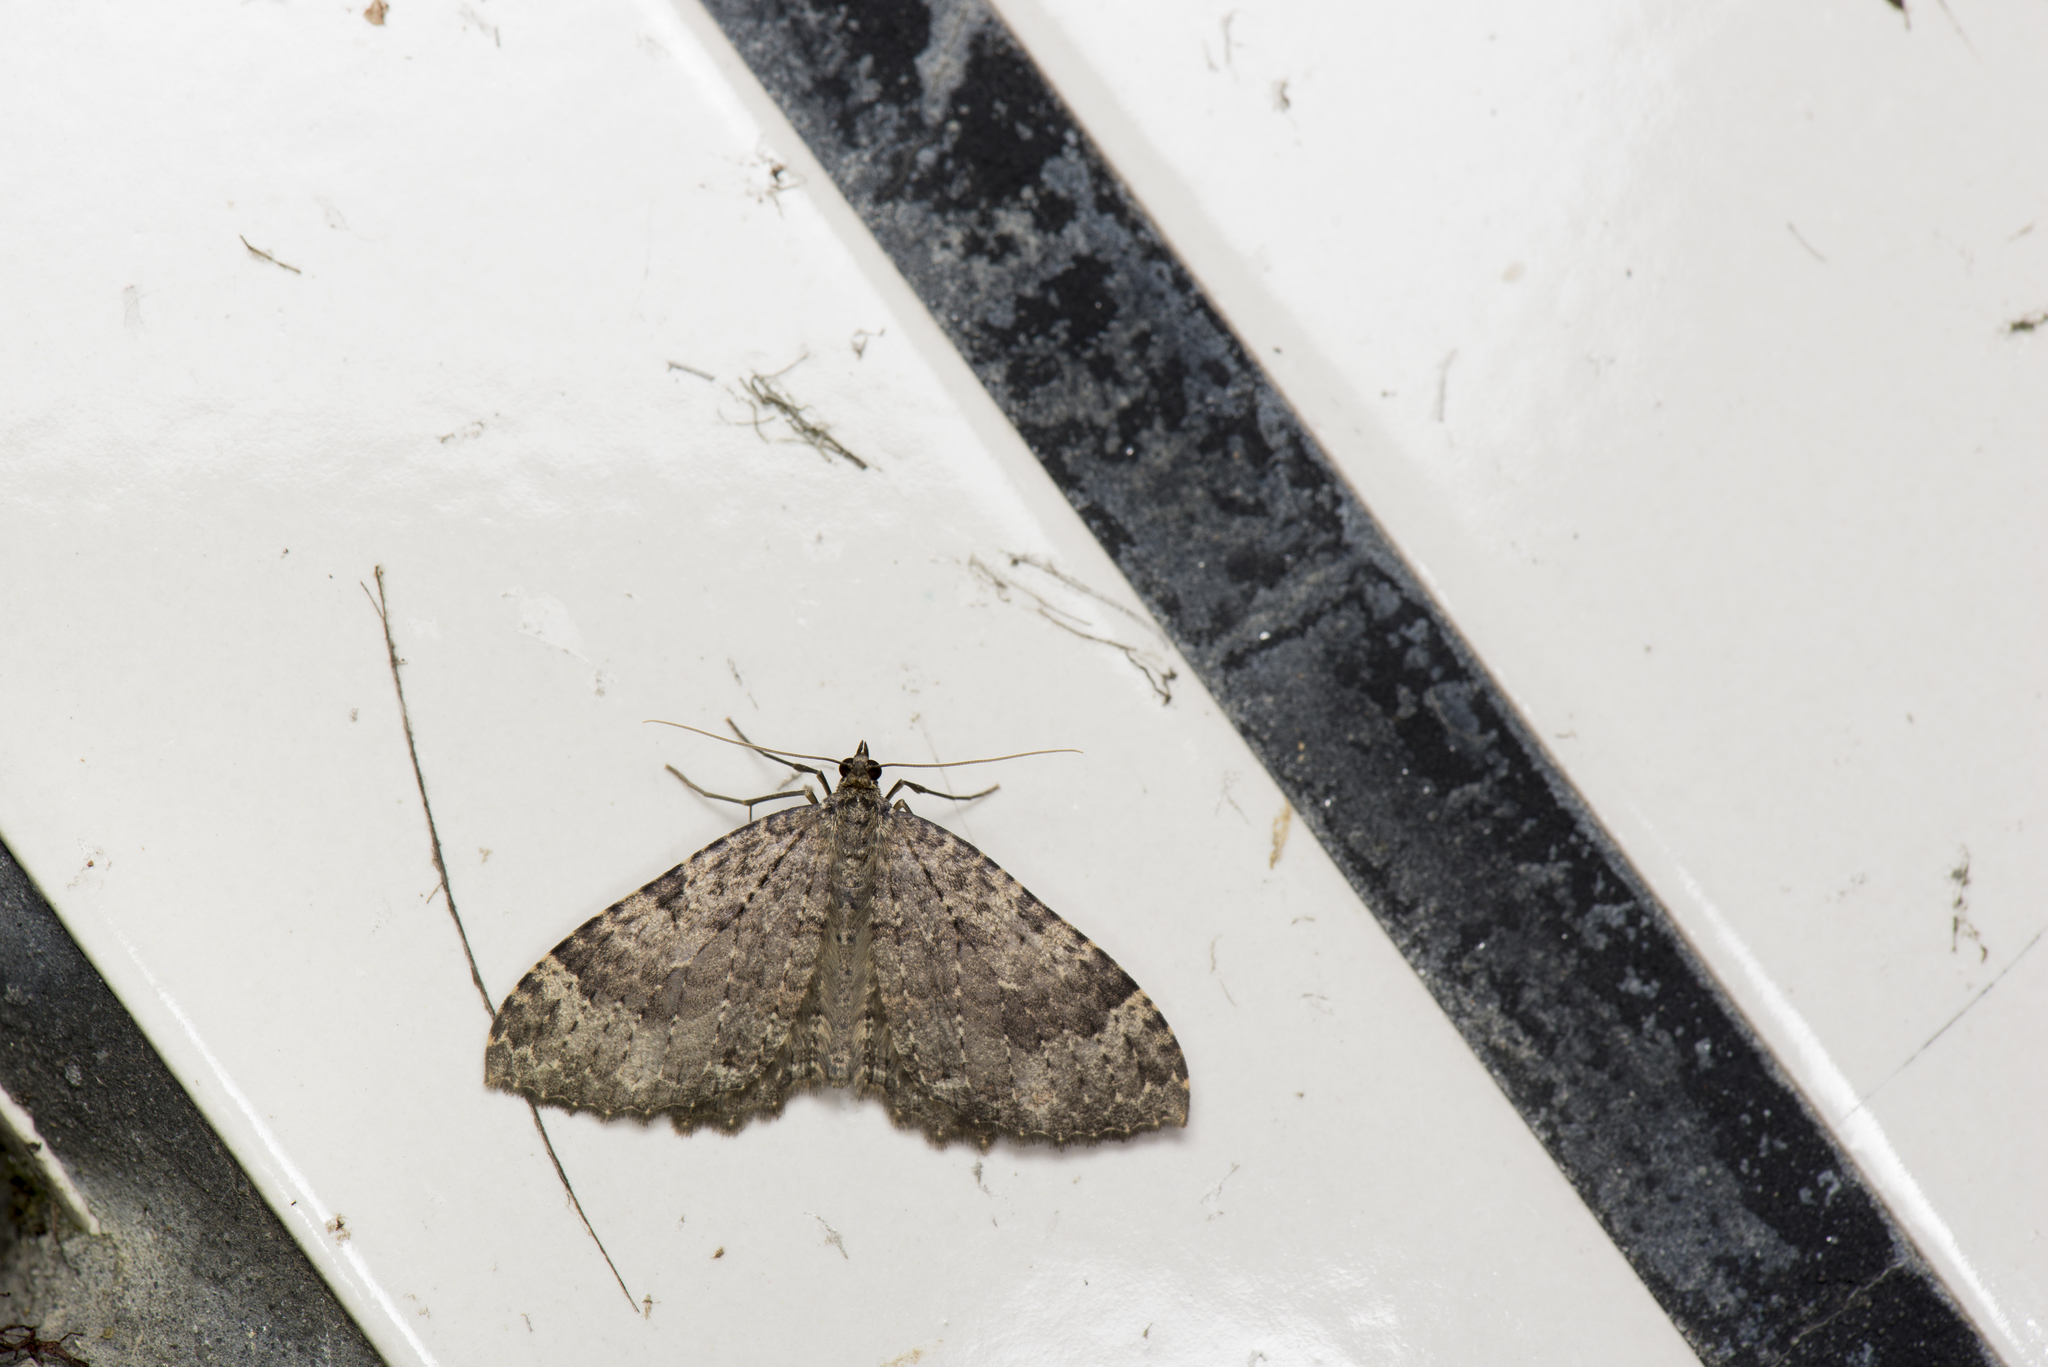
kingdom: Animalia
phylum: Arthropoda
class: Insecta
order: Lepidoptera
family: Geometridae
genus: Triphosa
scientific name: Triphosa rantaizanensis
